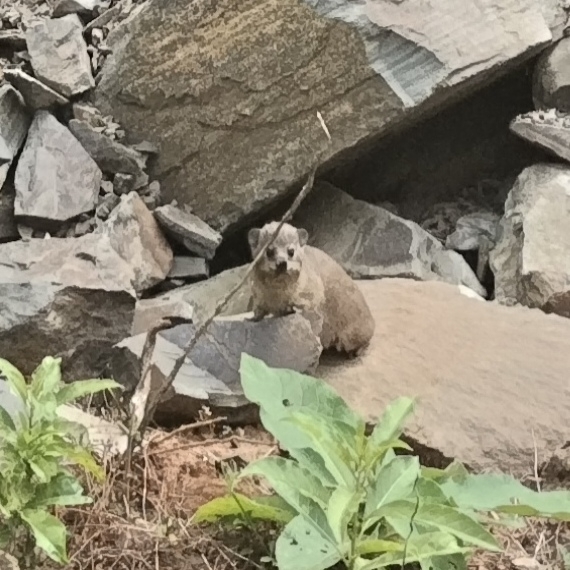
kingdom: Animalia
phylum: Chordata
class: Mammalia
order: Hyracoidea
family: Procaviidae
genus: Procavia
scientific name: Procavia capensis
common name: Rock hyrax
